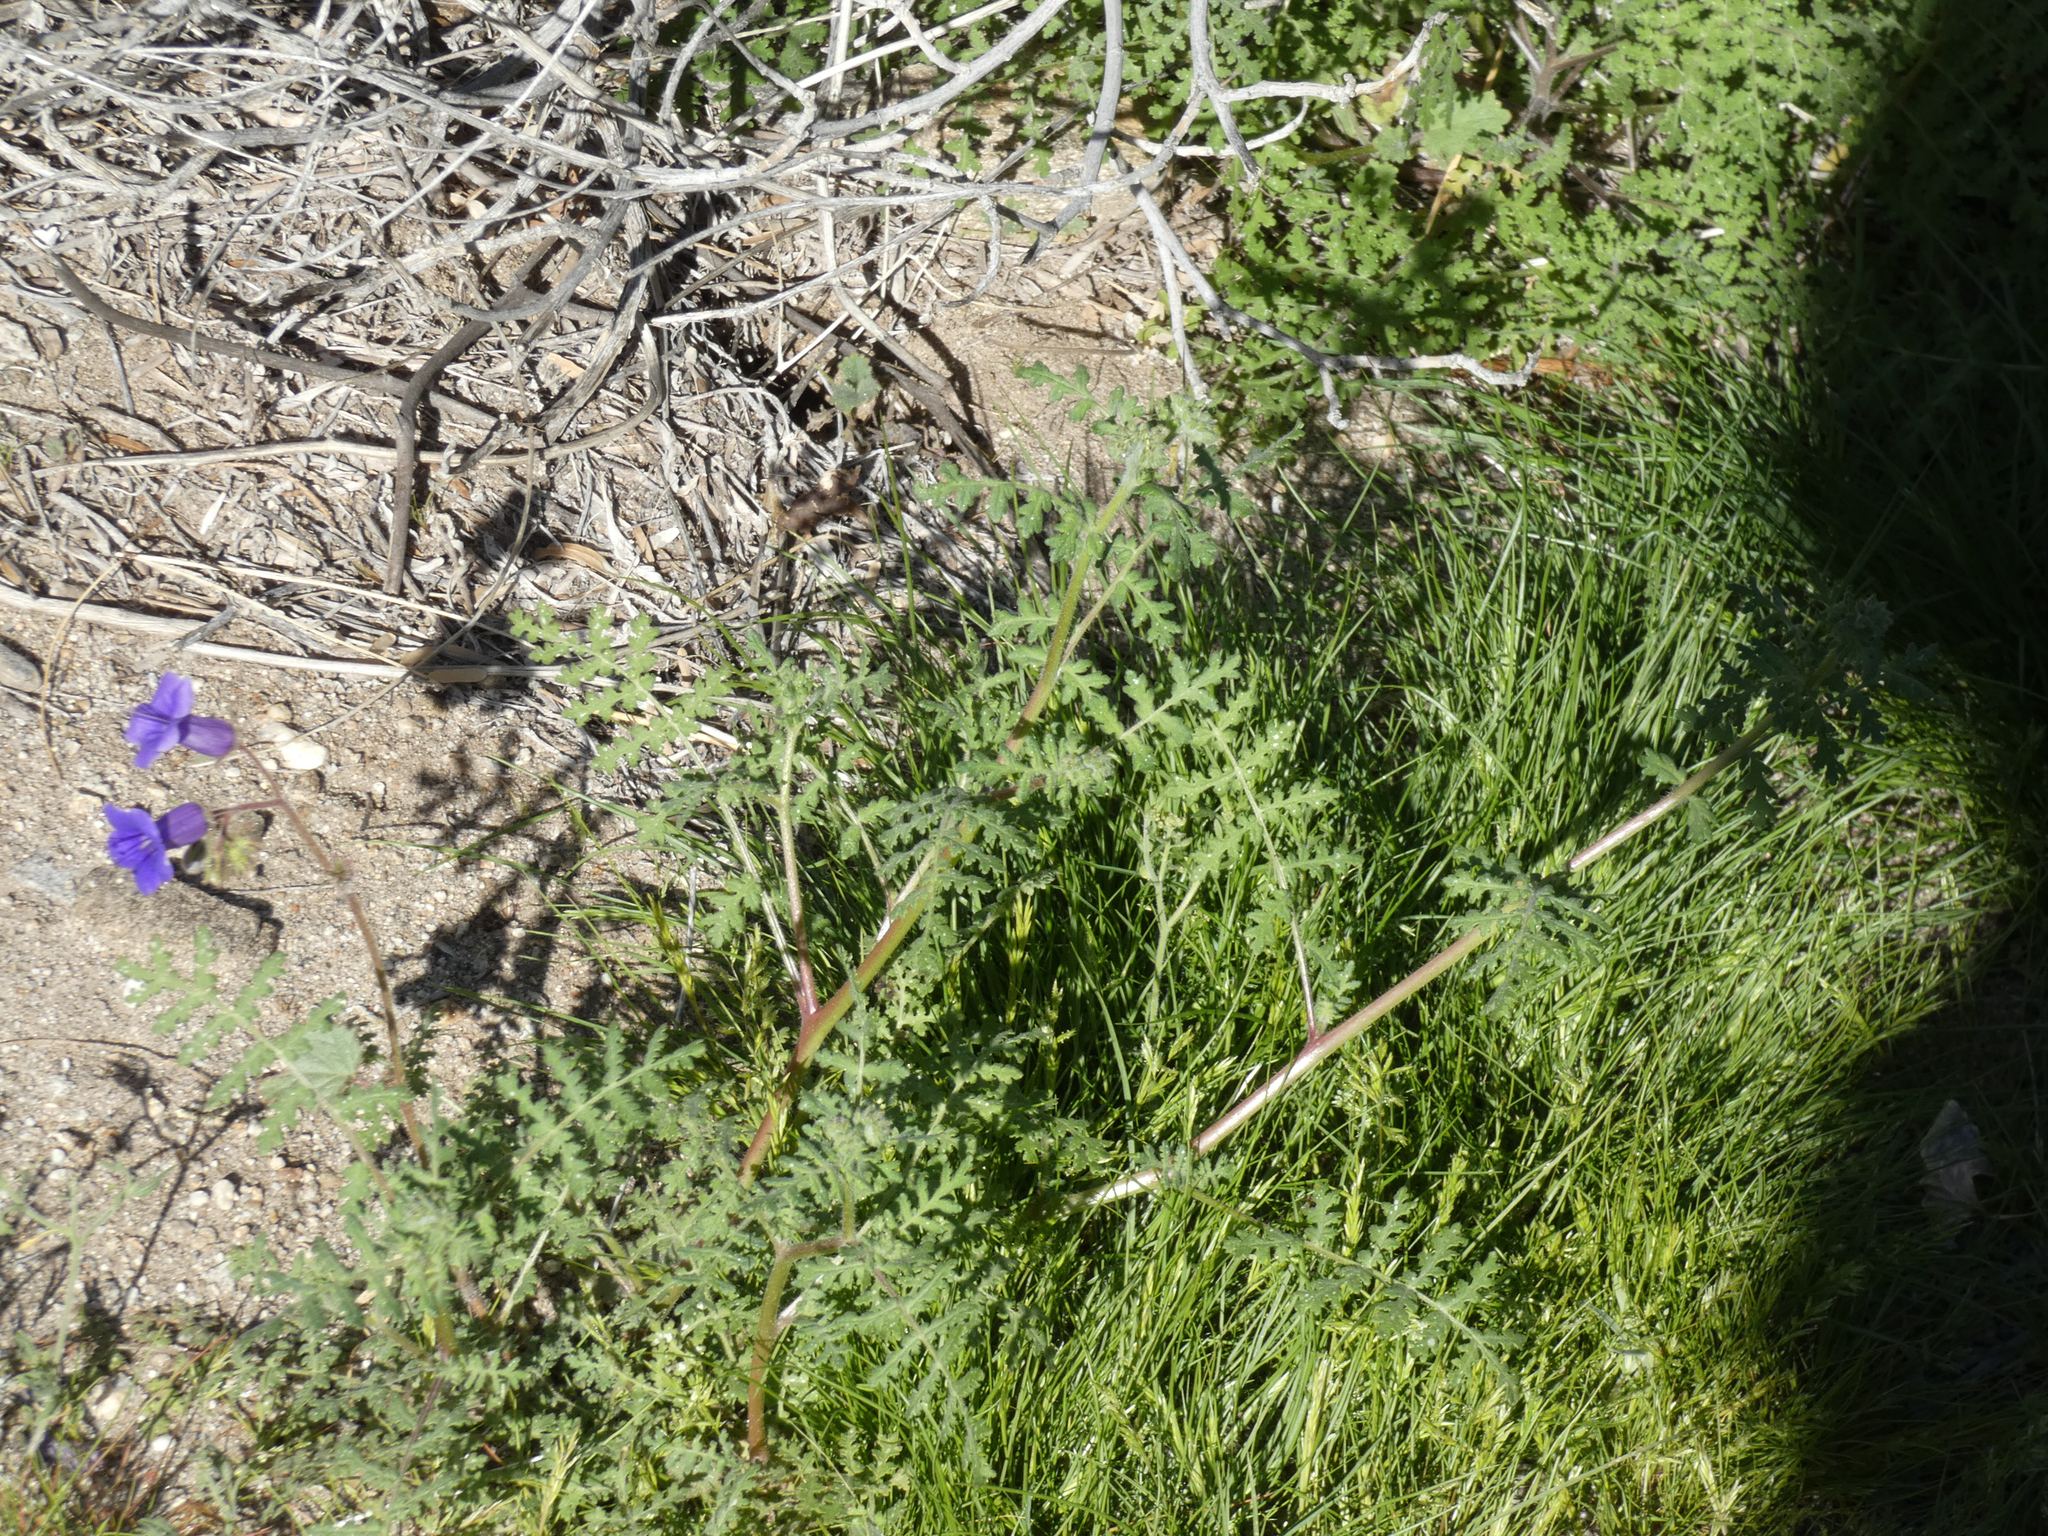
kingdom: Plantae
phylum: Tracheophyta
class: Magnoliopsida
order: Boraginales
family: Hydrophyllaceae
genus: Phacelia
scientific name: Phacelia minor
